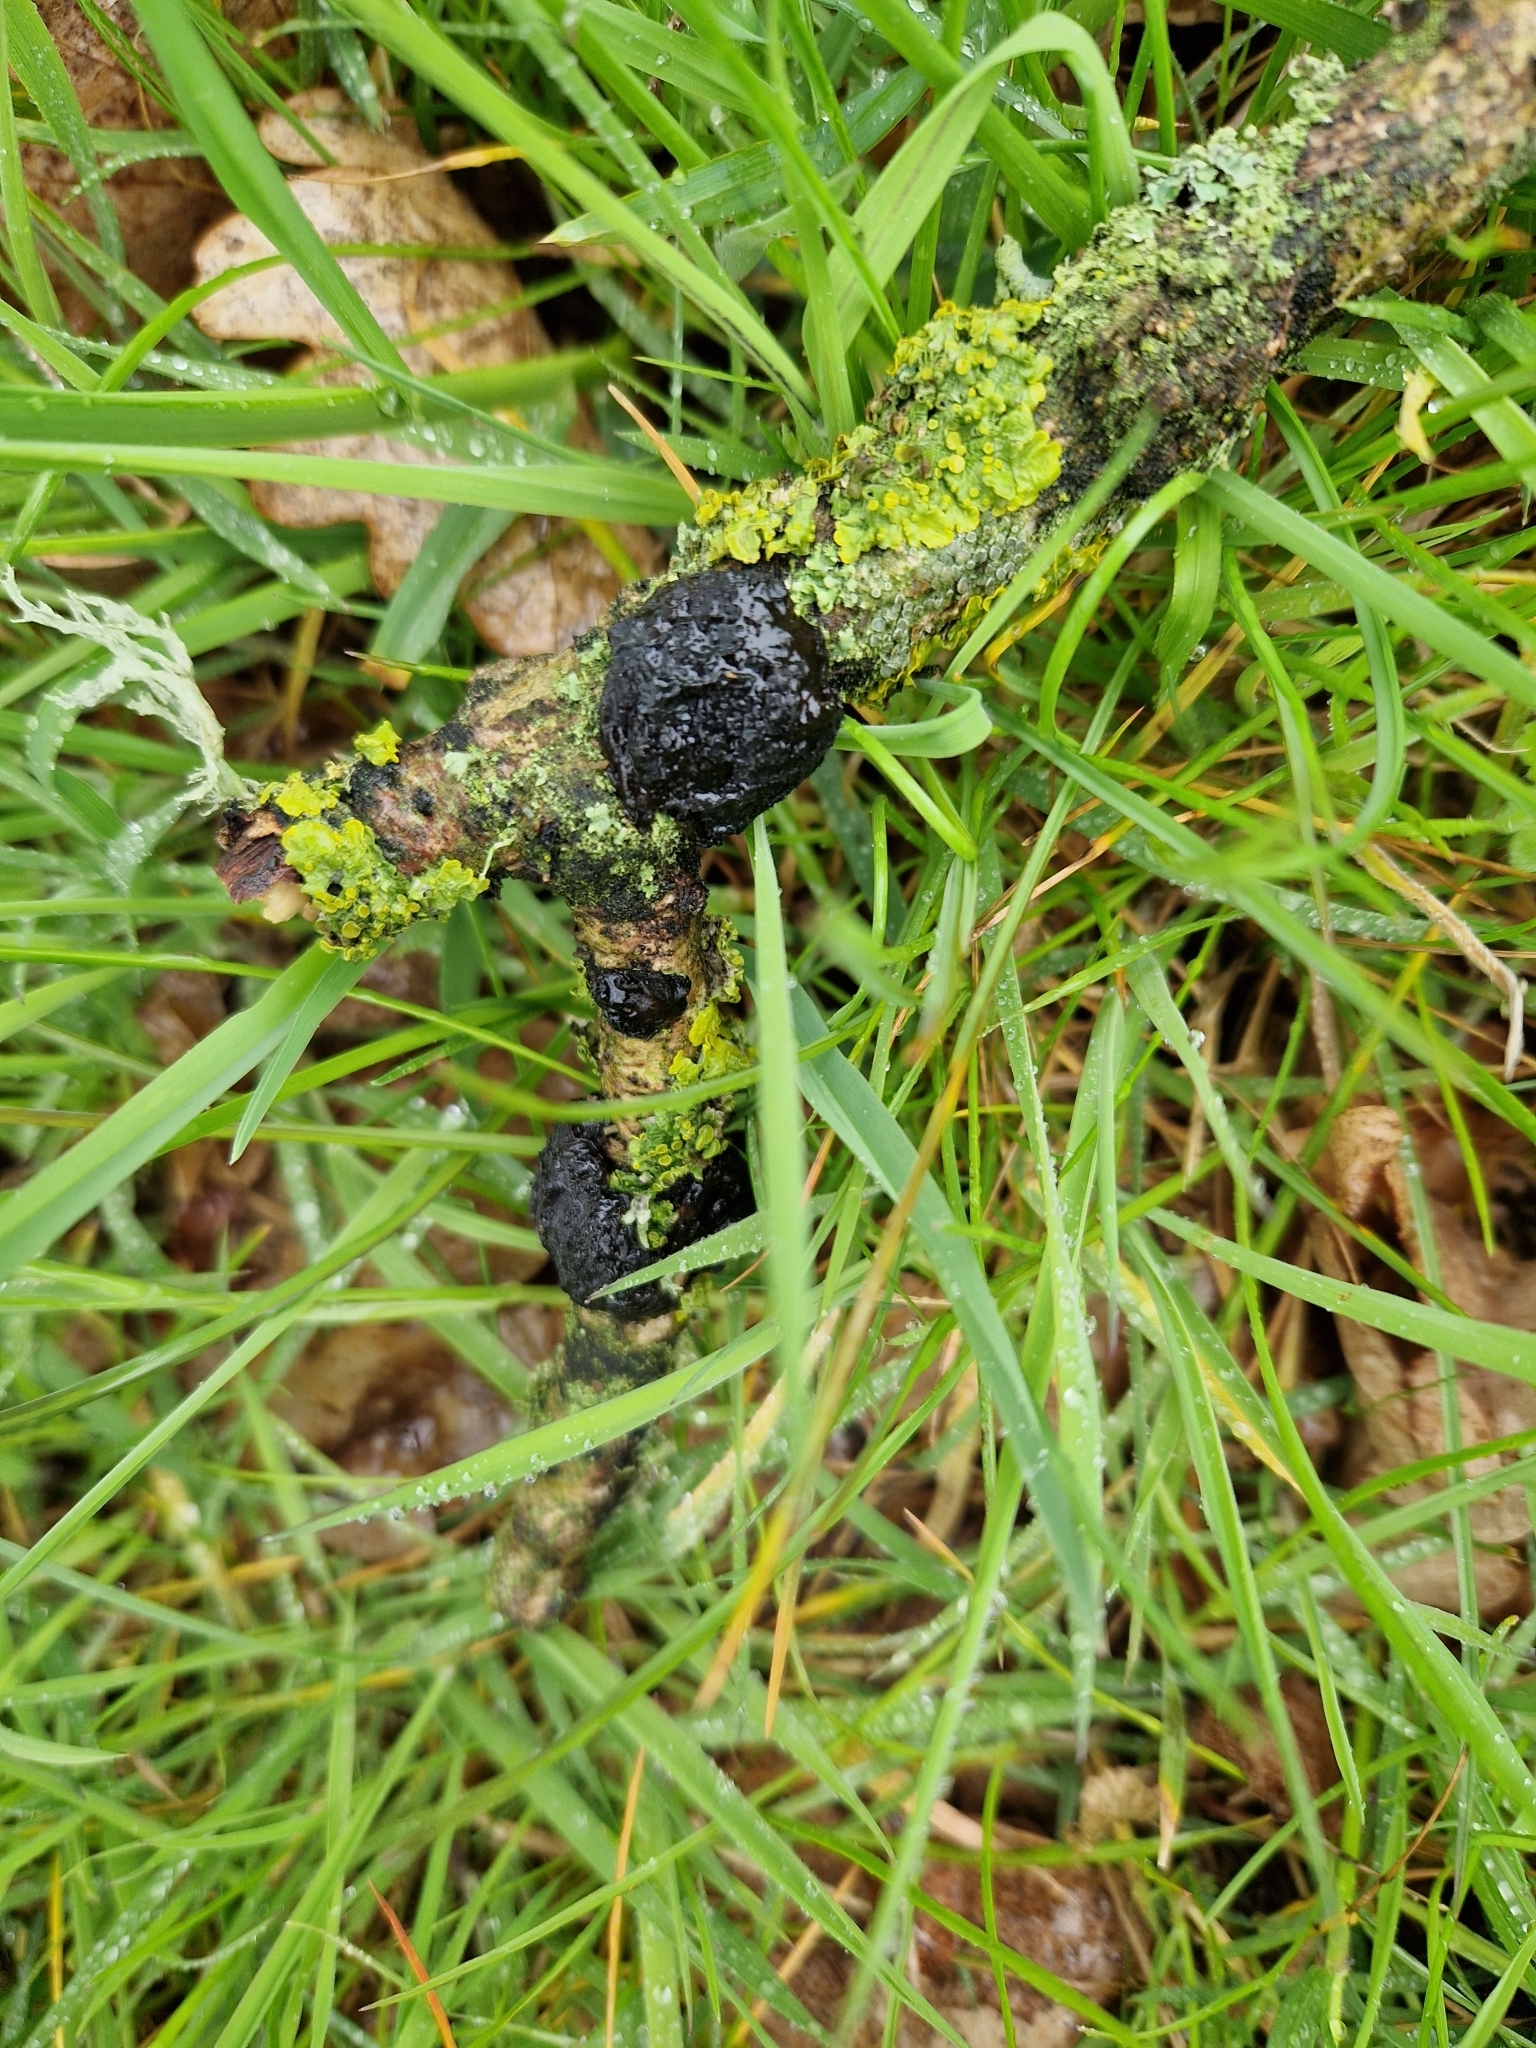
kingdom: Fungi
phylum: Basidiomycota
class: Agaricomycetes
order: Auriculariales
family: Auriculariaceae
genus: Exidia
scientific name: Exidia glandulosa
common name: Witches' butter
